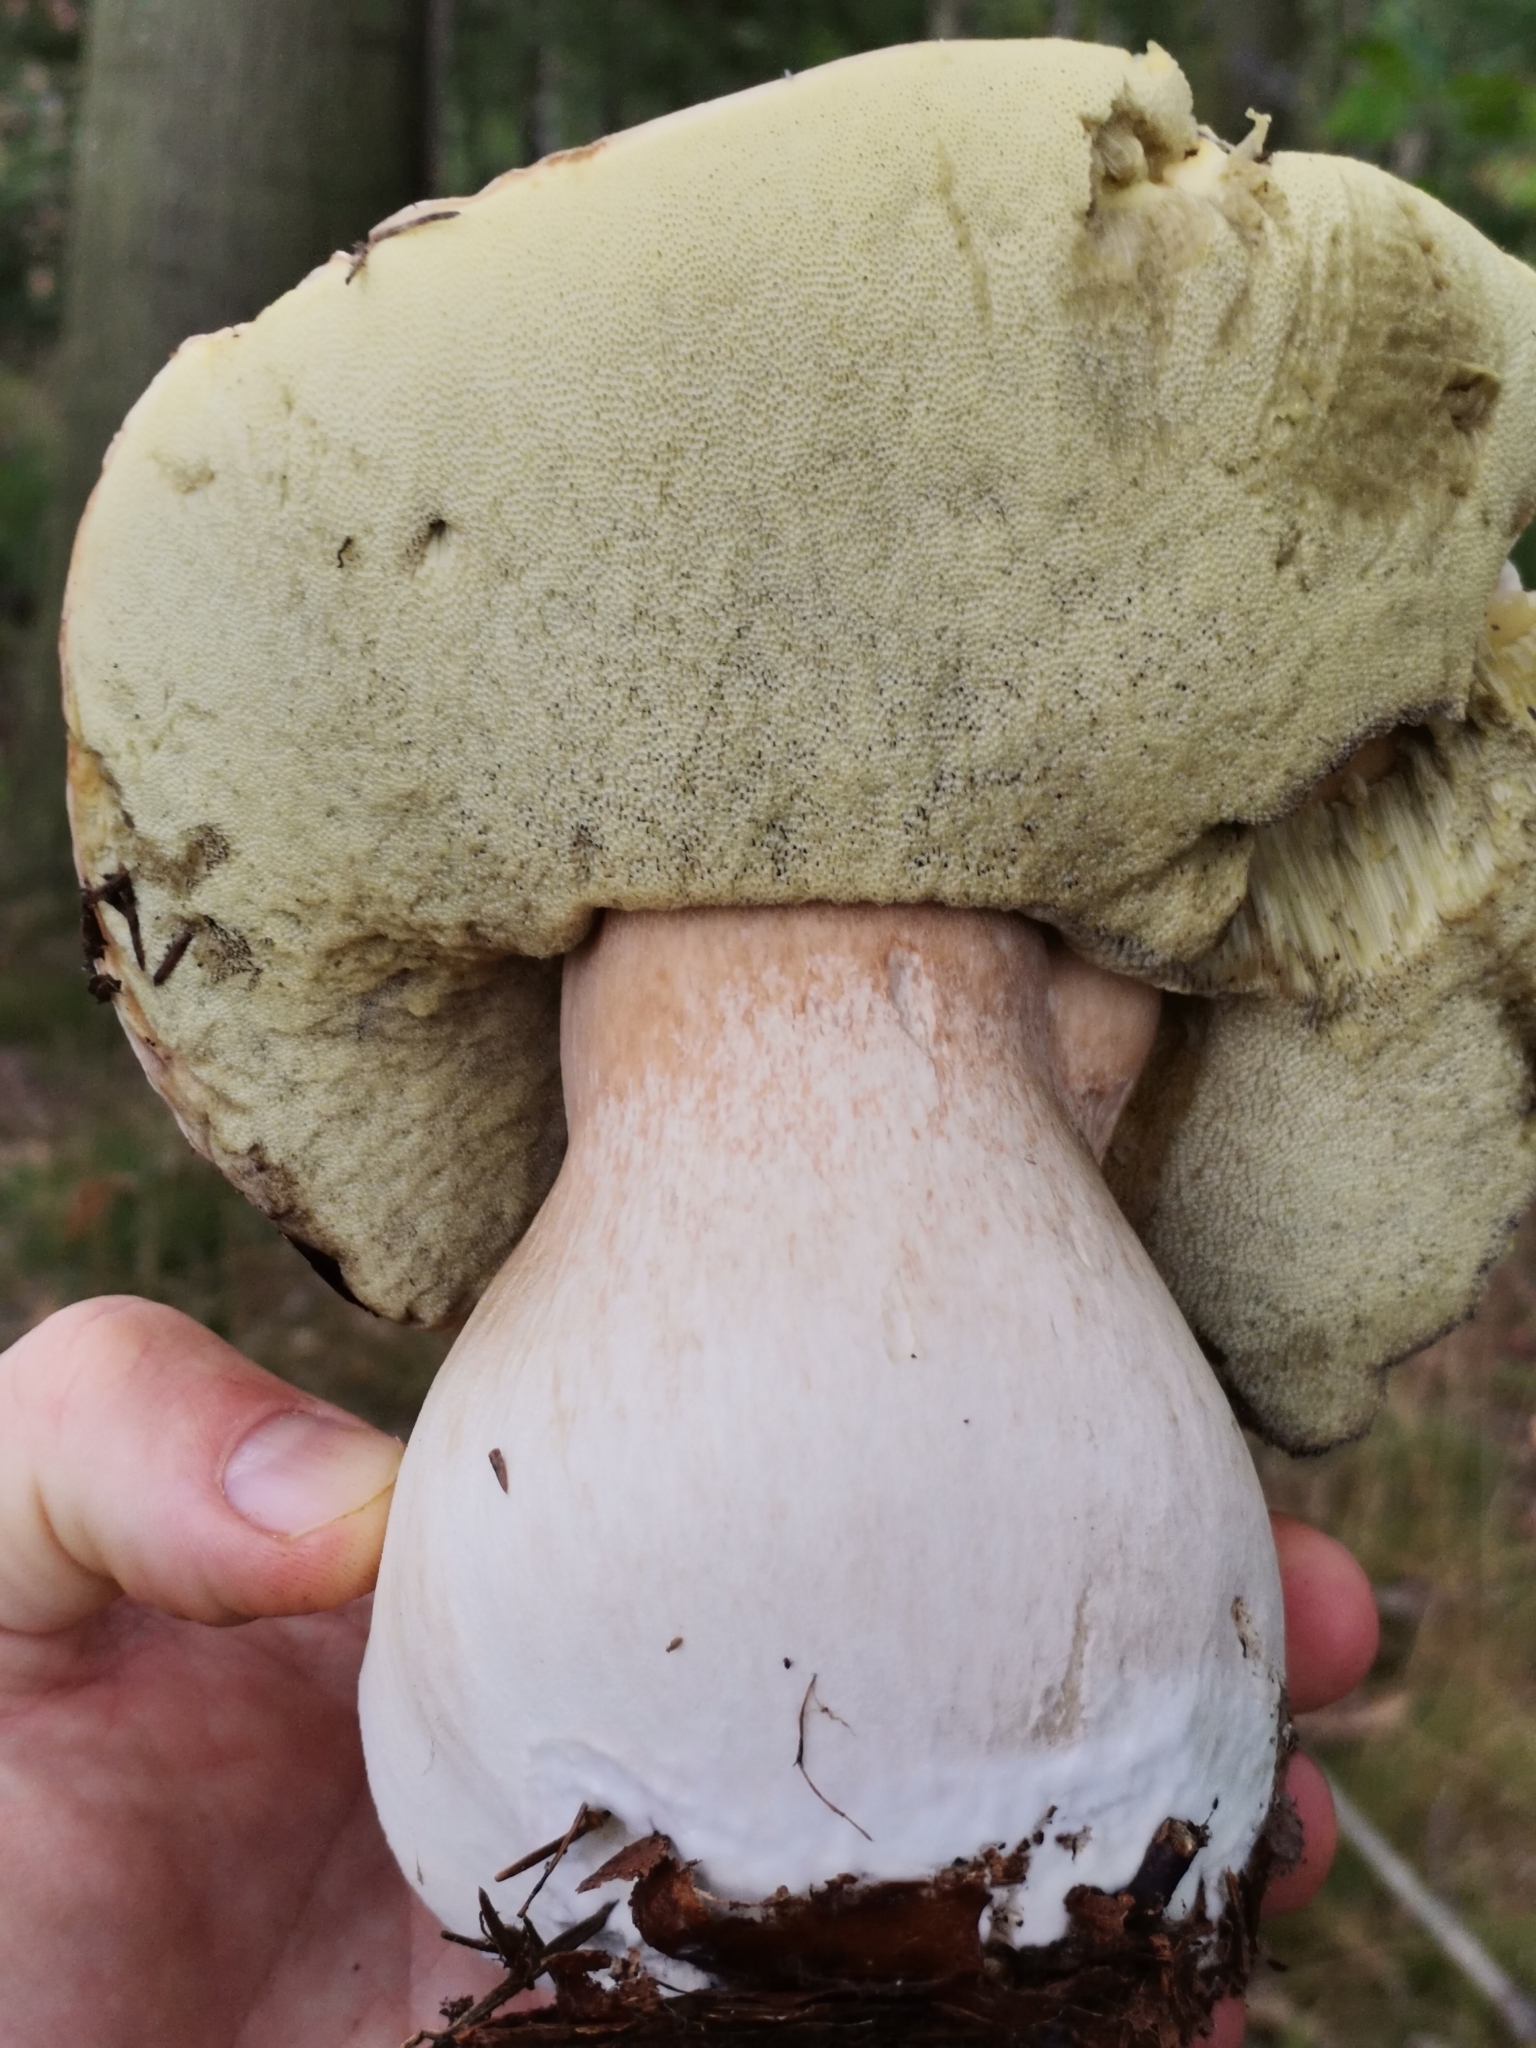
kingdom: Fungi
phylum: Basidiomycota
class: Agaricomycetes
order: Boletales
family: Boletaceae
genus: Boletus
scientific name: Boletus edulis
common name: Cep
